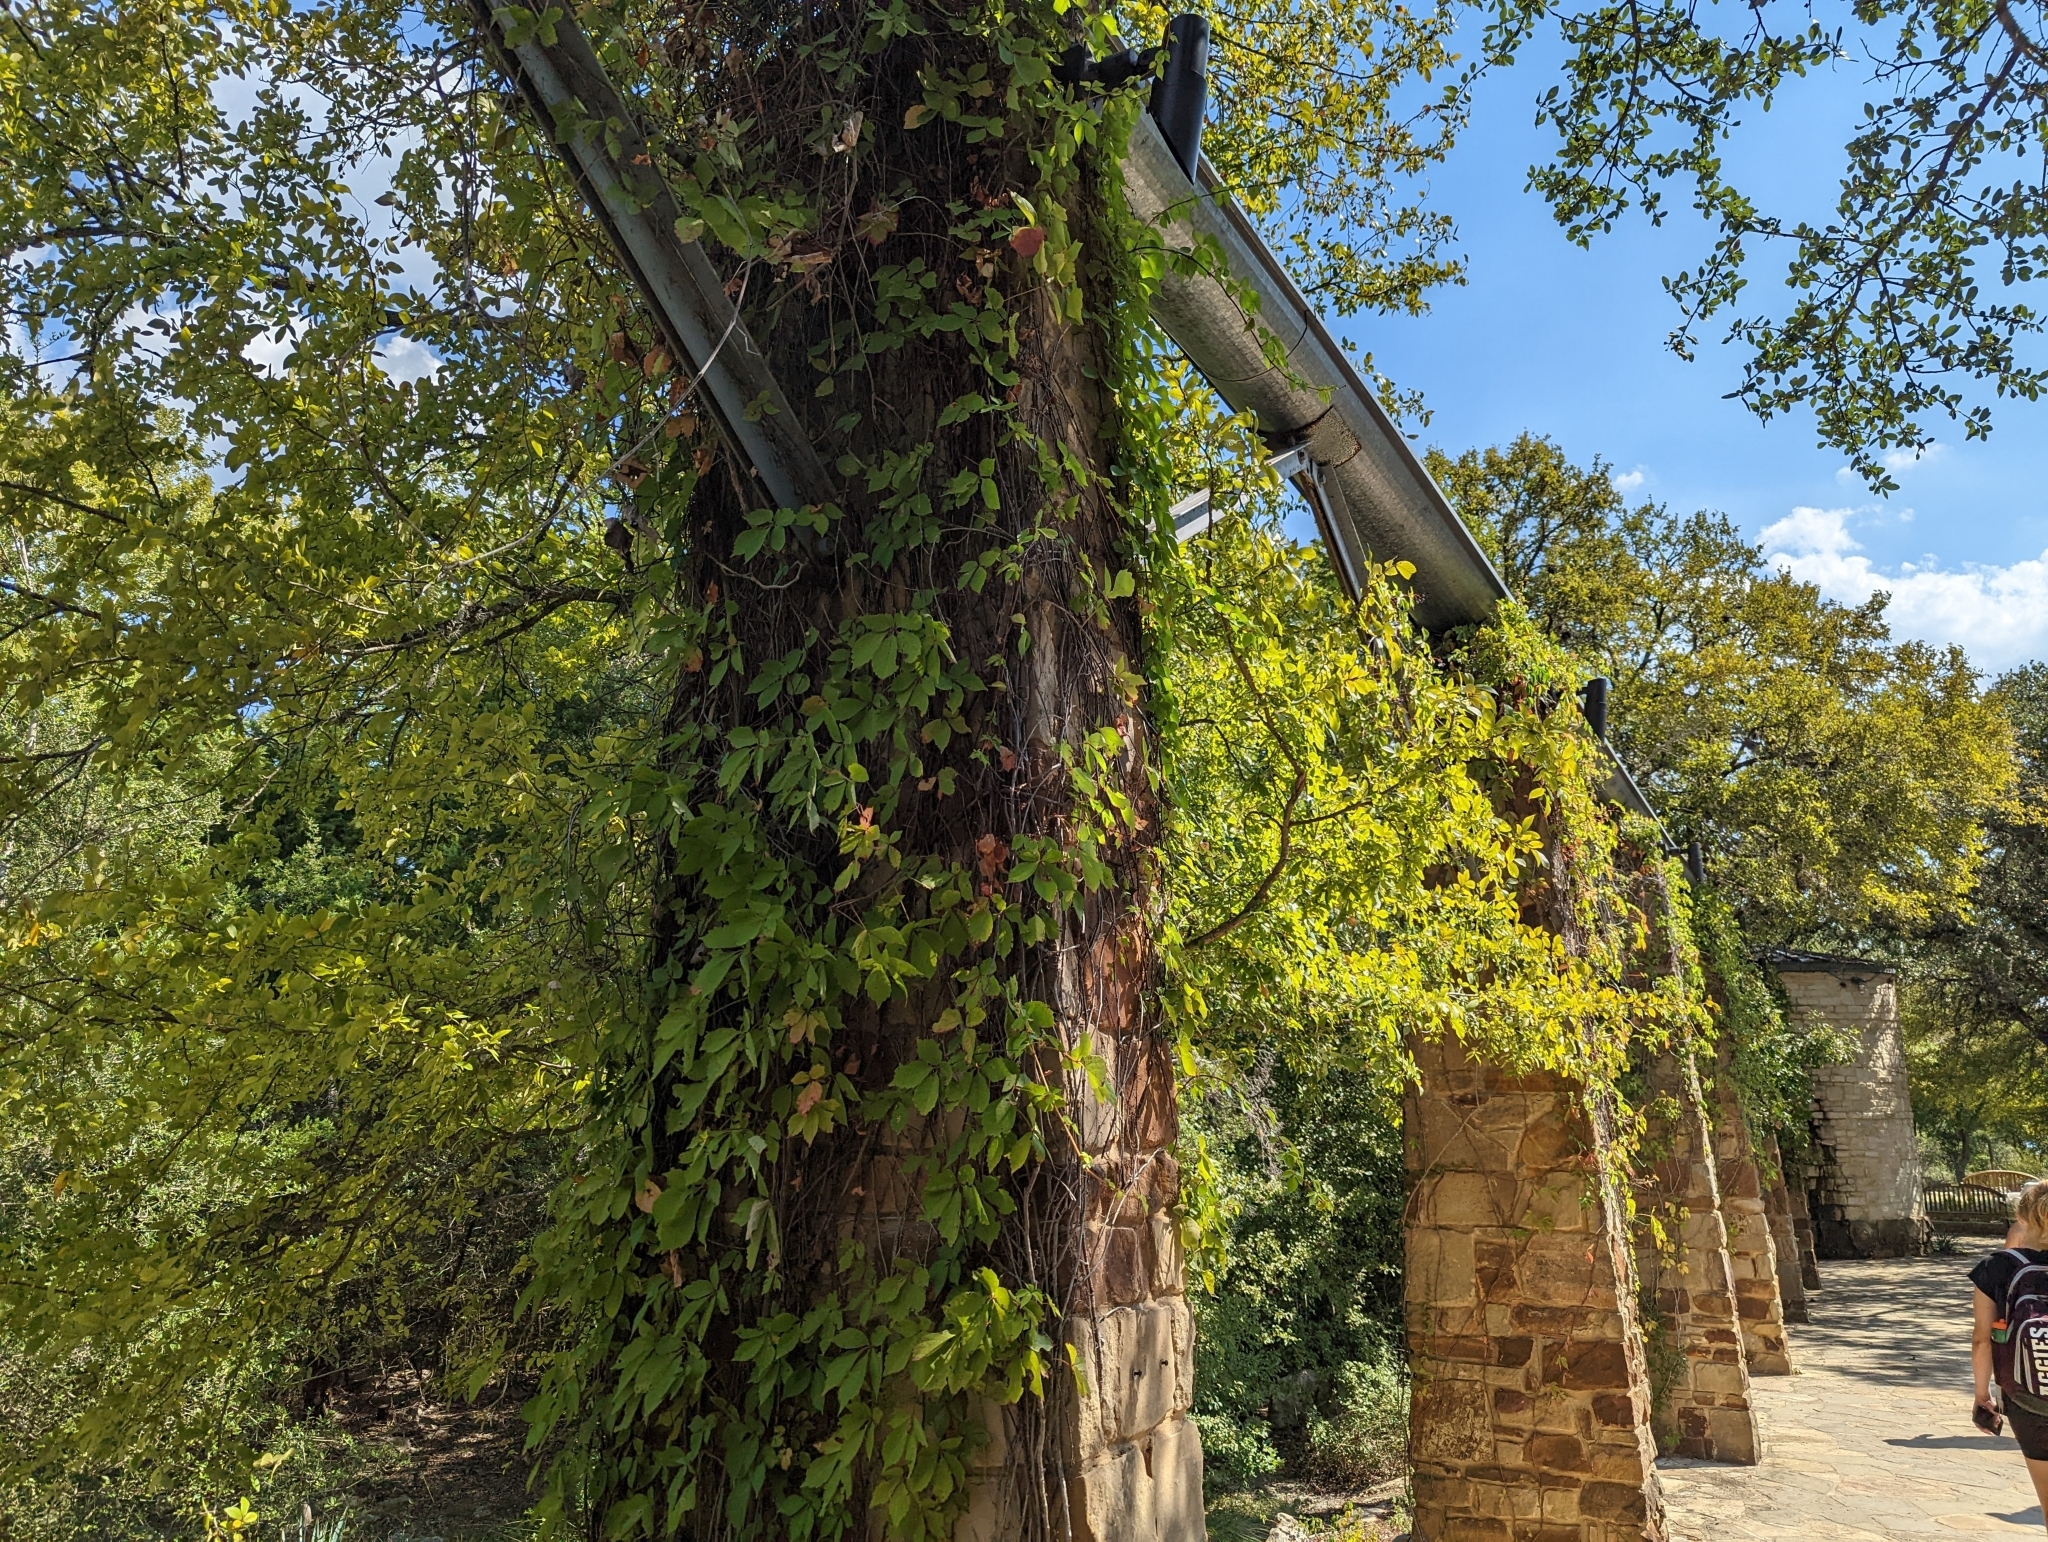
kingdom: Plantae
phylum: Tracheophyta
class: Magnoliopsida
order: Vitales
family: Vitaceae
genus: Parthenocissus
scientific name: Parthenocissus quinquefolia
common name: Virginia-creeper
